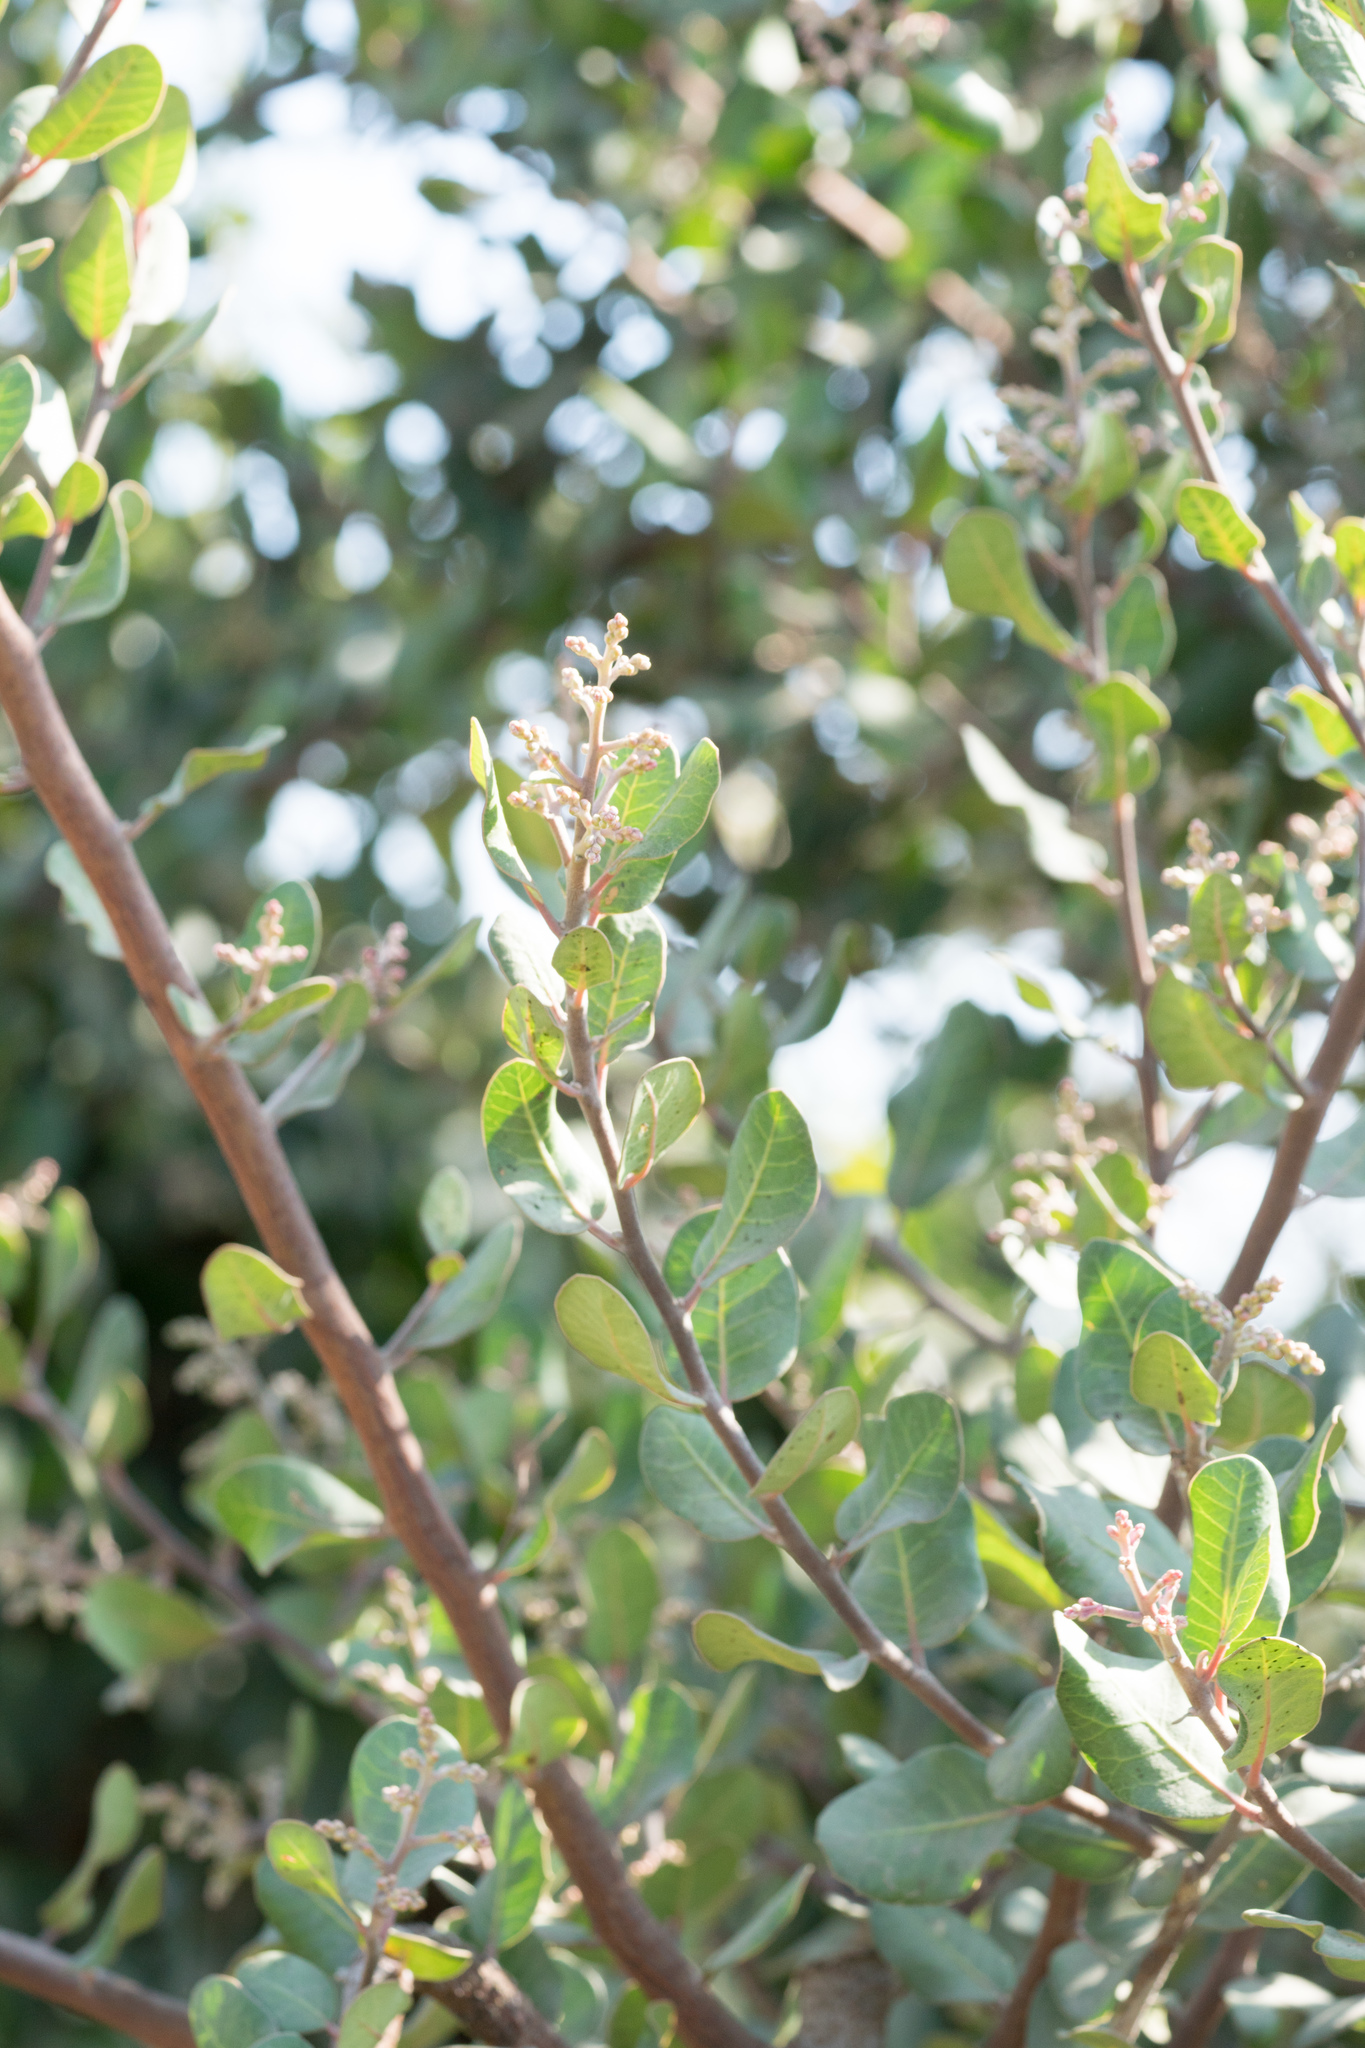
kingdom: Plantae
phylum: Tracheophyta
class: Magnoliopsida
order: Sapindales
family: Anacardiaceae
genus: Rhus
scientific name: Rhus integrifolia
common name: Lemonade sumac
